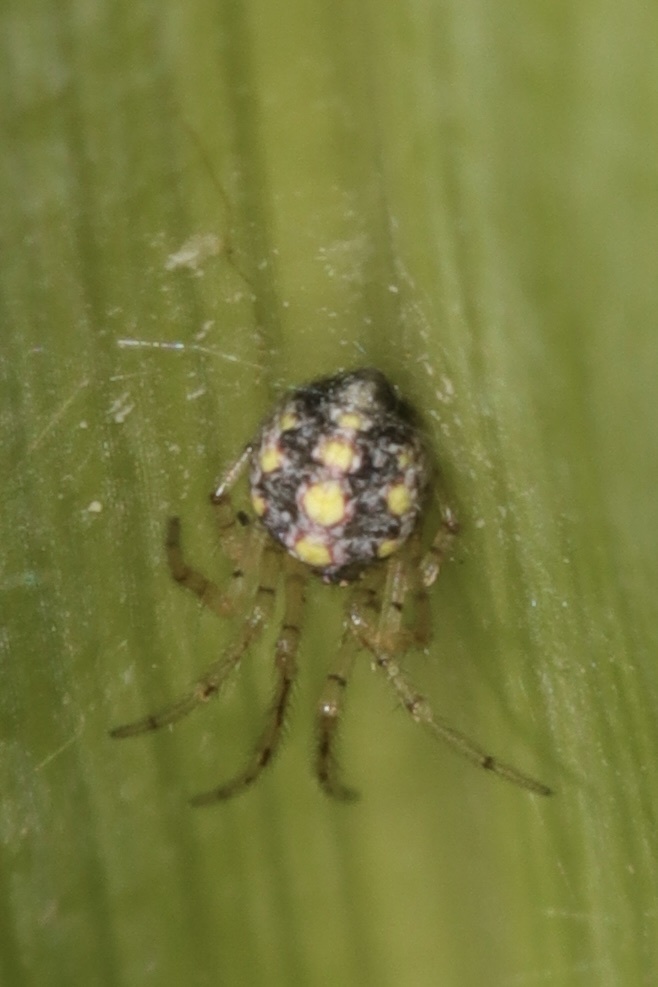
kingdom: Animalia
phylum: Arthropoda
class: Arachnida
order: Araneae
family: Theridiidae
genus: Theridion
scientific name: Theridion llano
